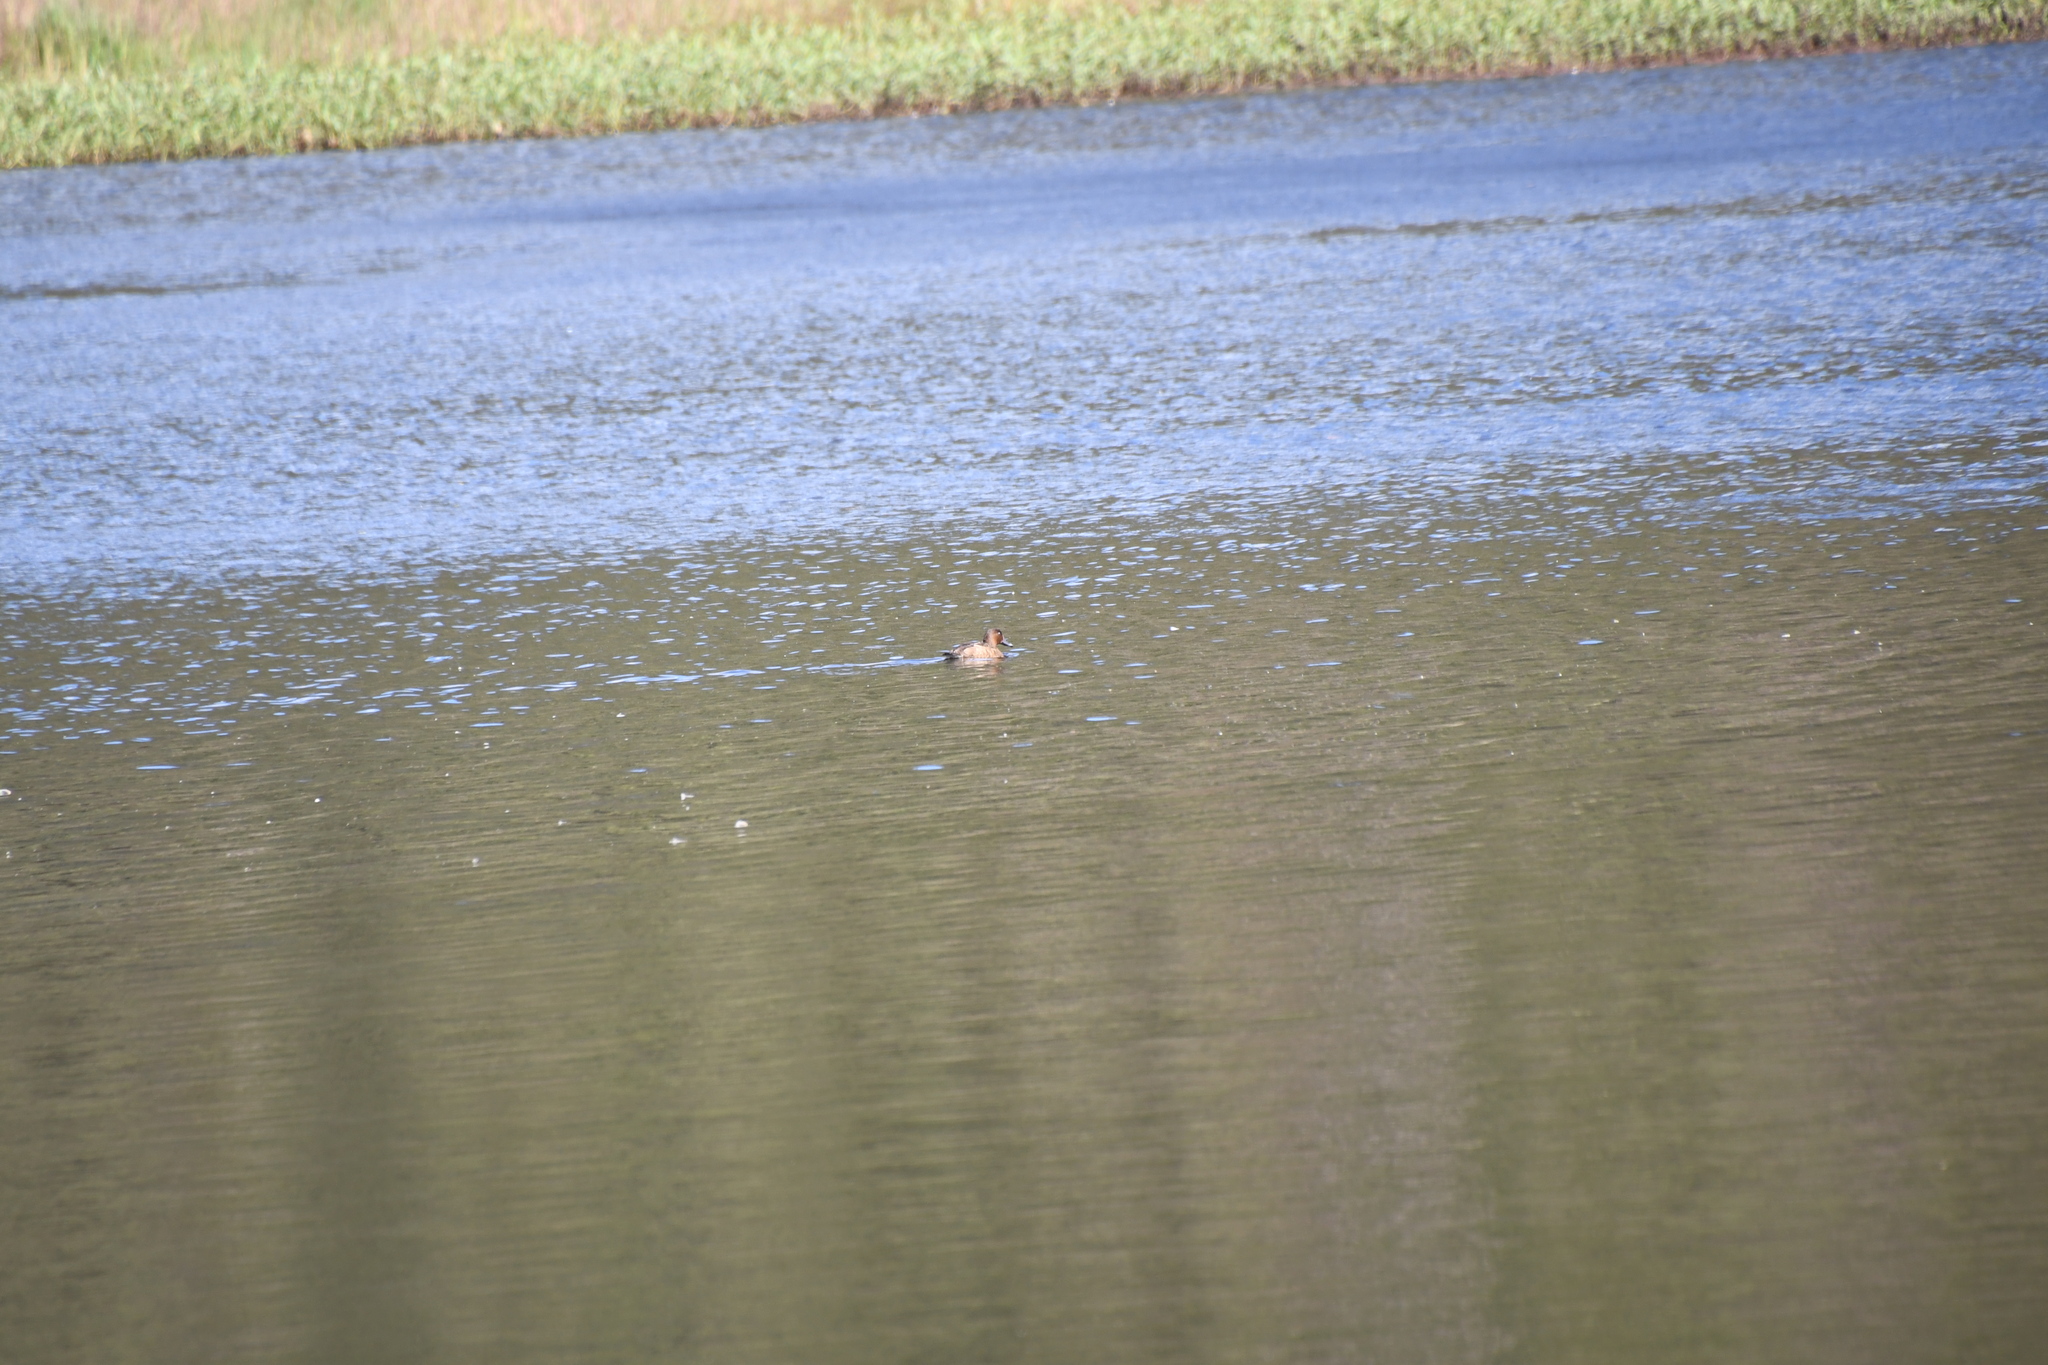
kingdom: Animalia
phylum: Chordata
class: Aves
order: Anseriformes
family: Anatidae
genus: Aythya
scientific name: Aythya australis
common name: Hardhead
